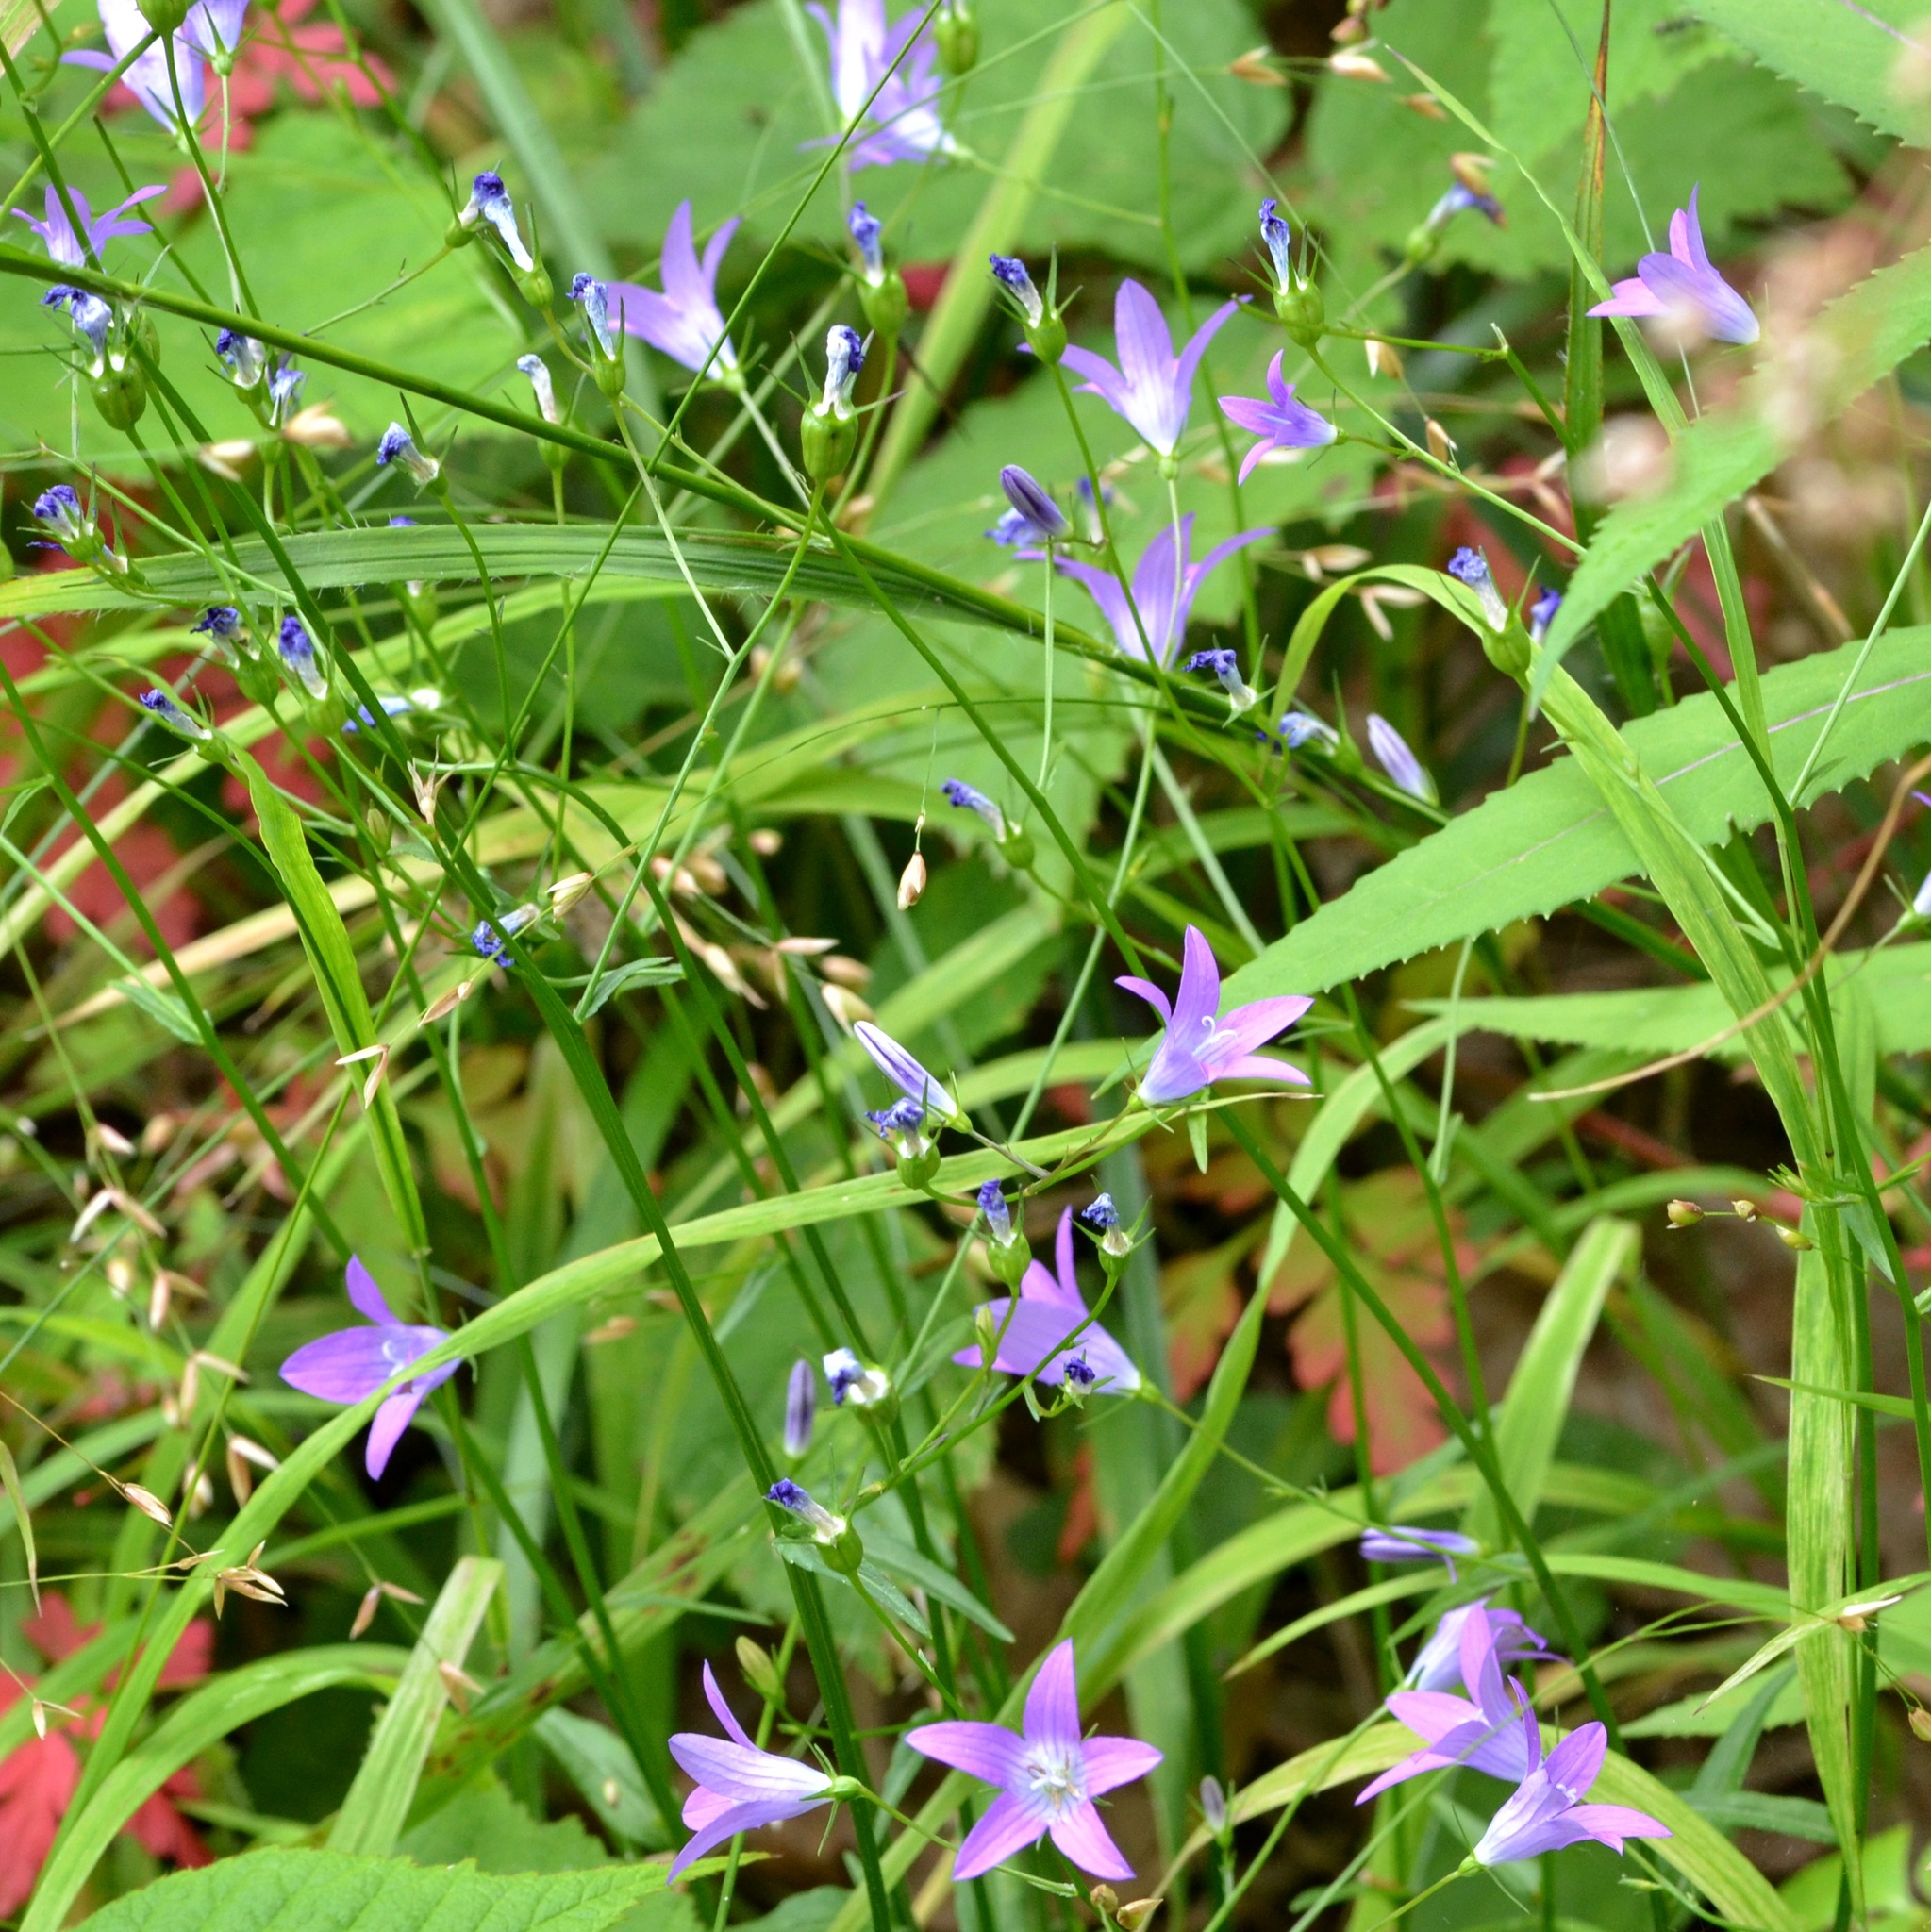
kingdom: Plantae
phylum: Tracheophyta
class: Magnoliopsida
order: Asterales
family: Campanulaceae
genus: Campanula
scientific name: Campanula patula
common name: Spreading bellflower
